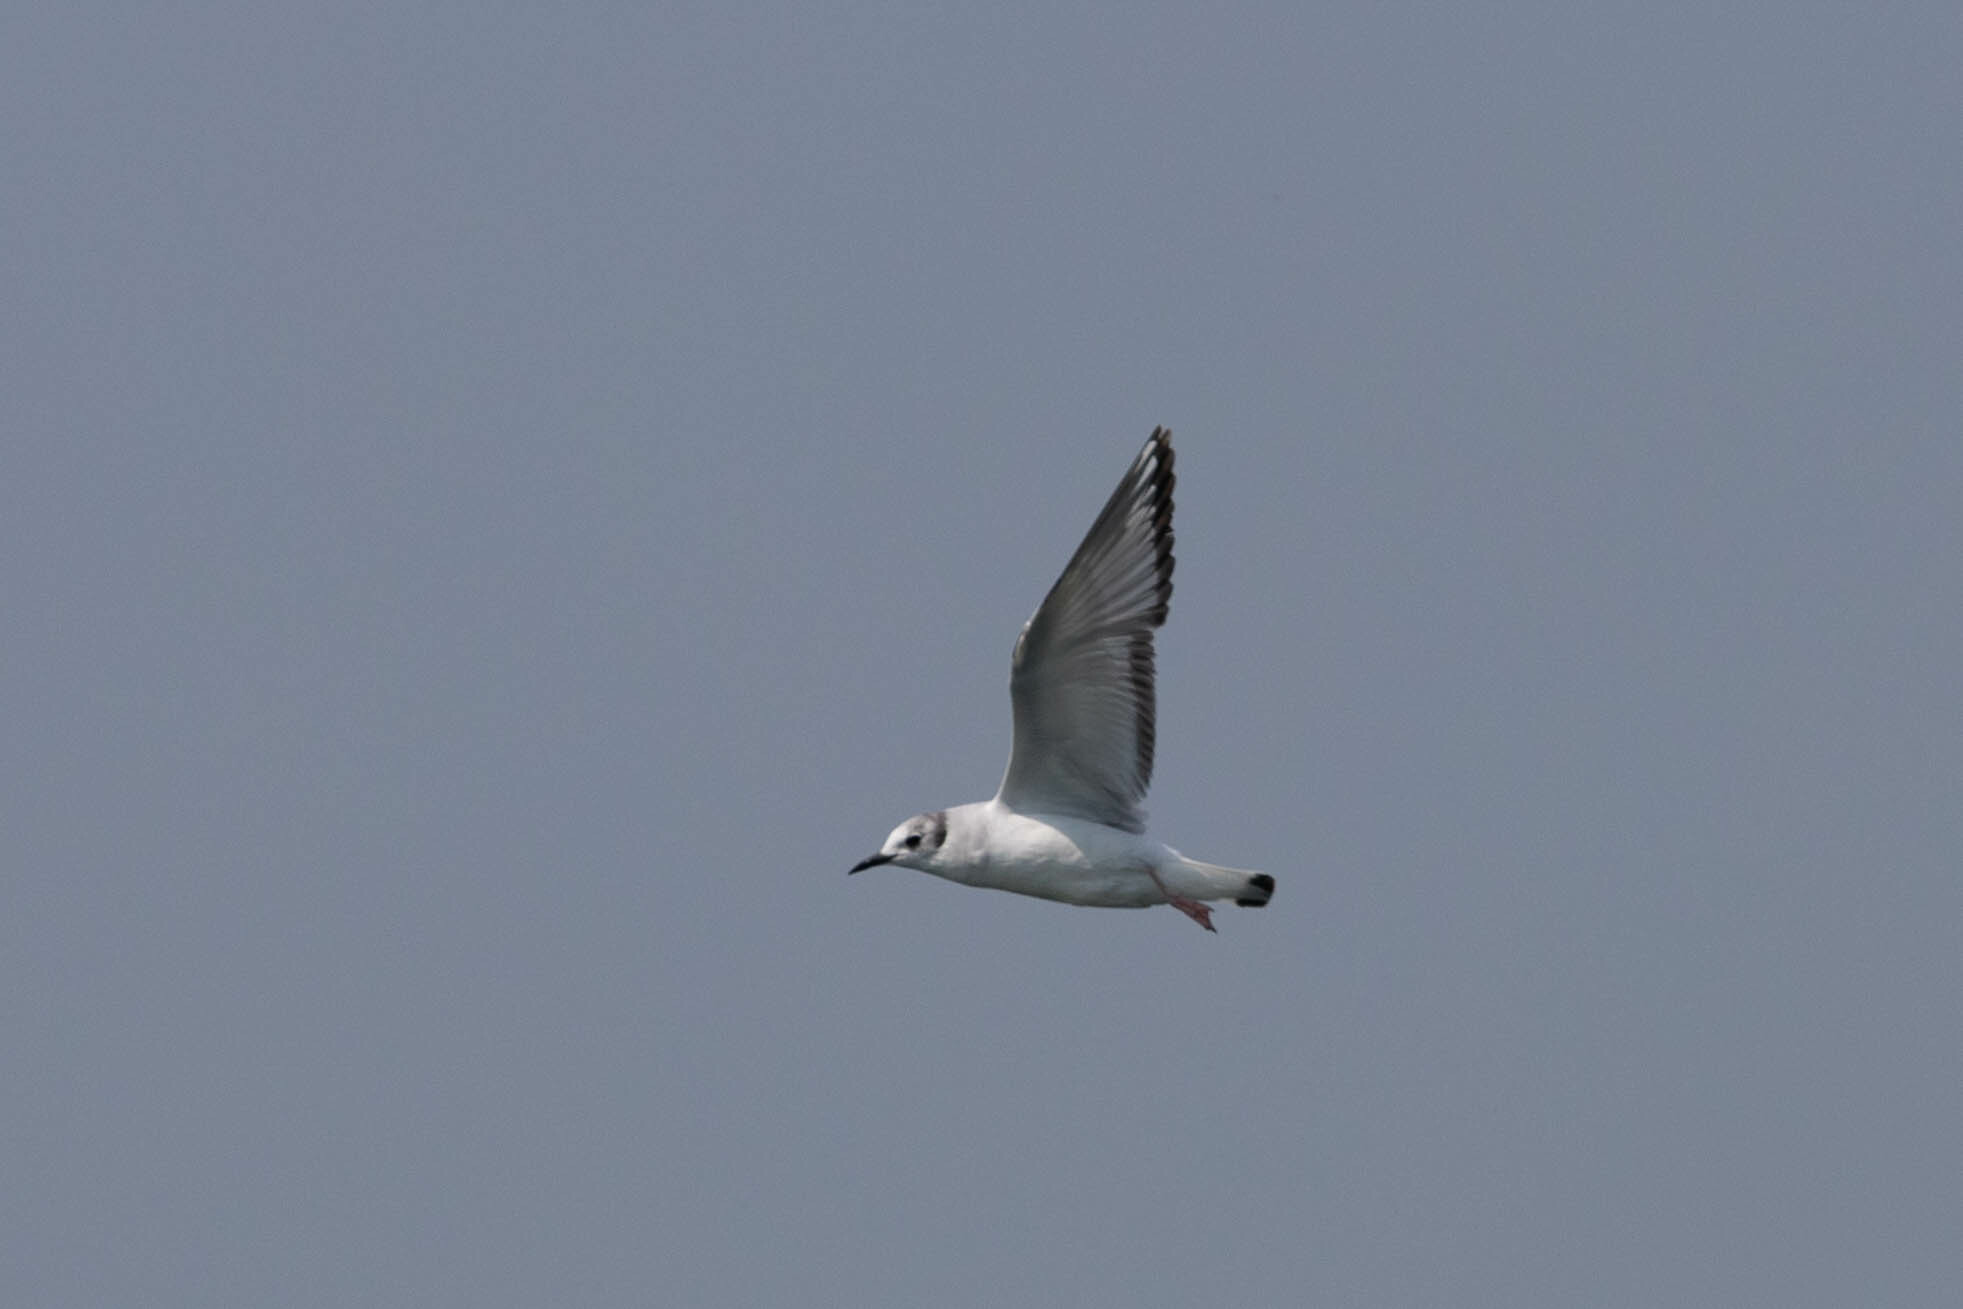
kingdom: Animalia
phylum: Chordata
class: Aves
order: Charadriiformes
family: Laridae
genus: Chroicocephalus
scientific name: Chroicocephalus philadelphia
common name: Bonaparte's gull
